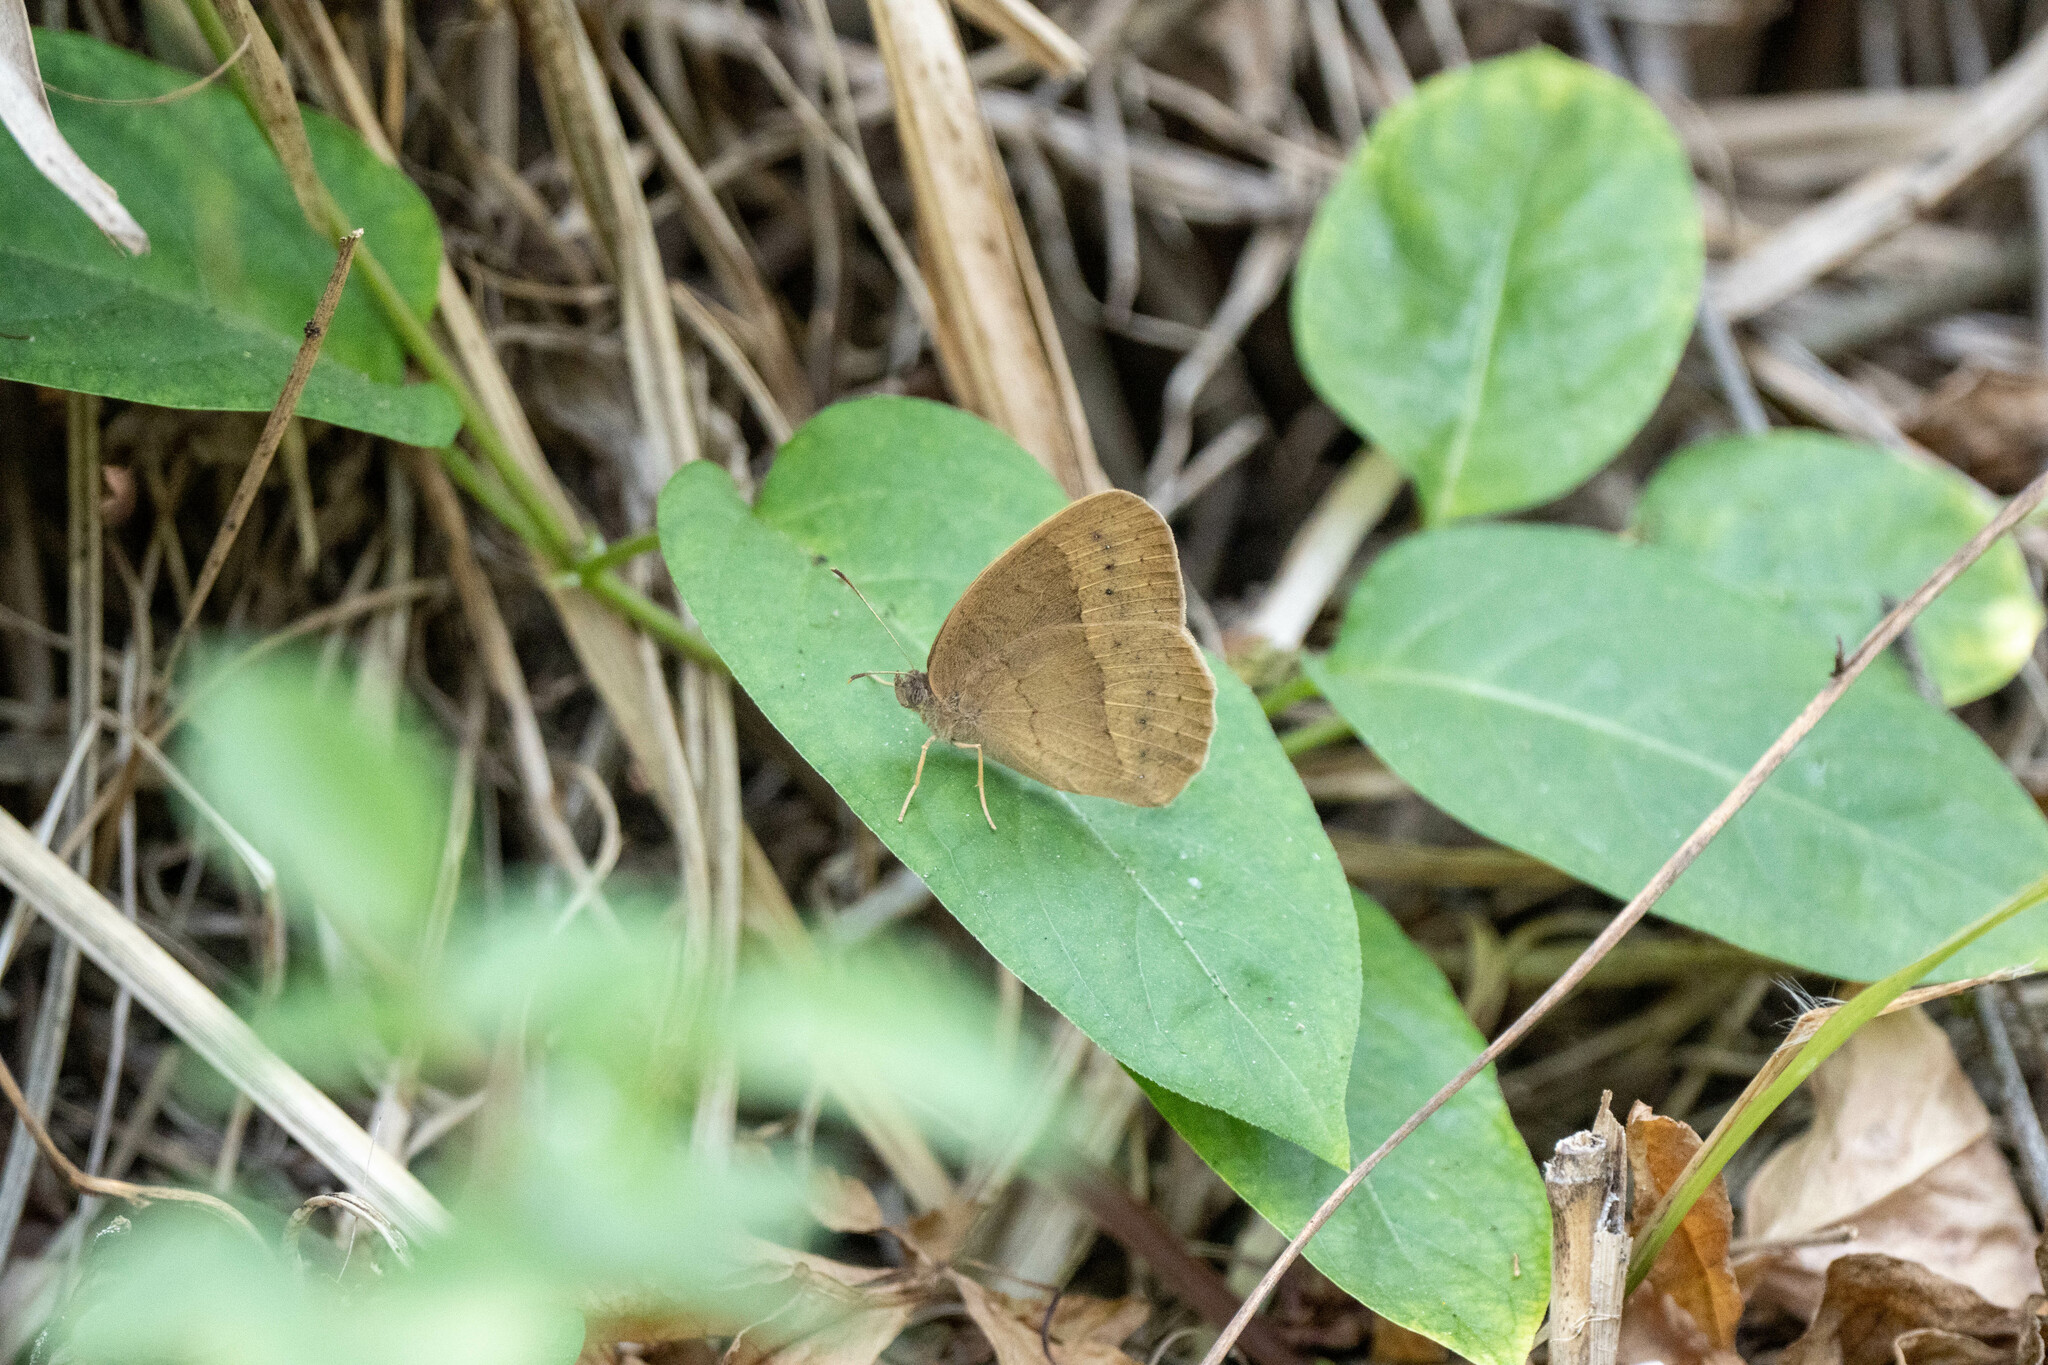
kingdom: Animalia
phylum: Arthropoda
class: Insecta
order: Lepidoptera
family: Nymphalidae
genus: Mycalesis
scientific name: Mycalesis mineus
